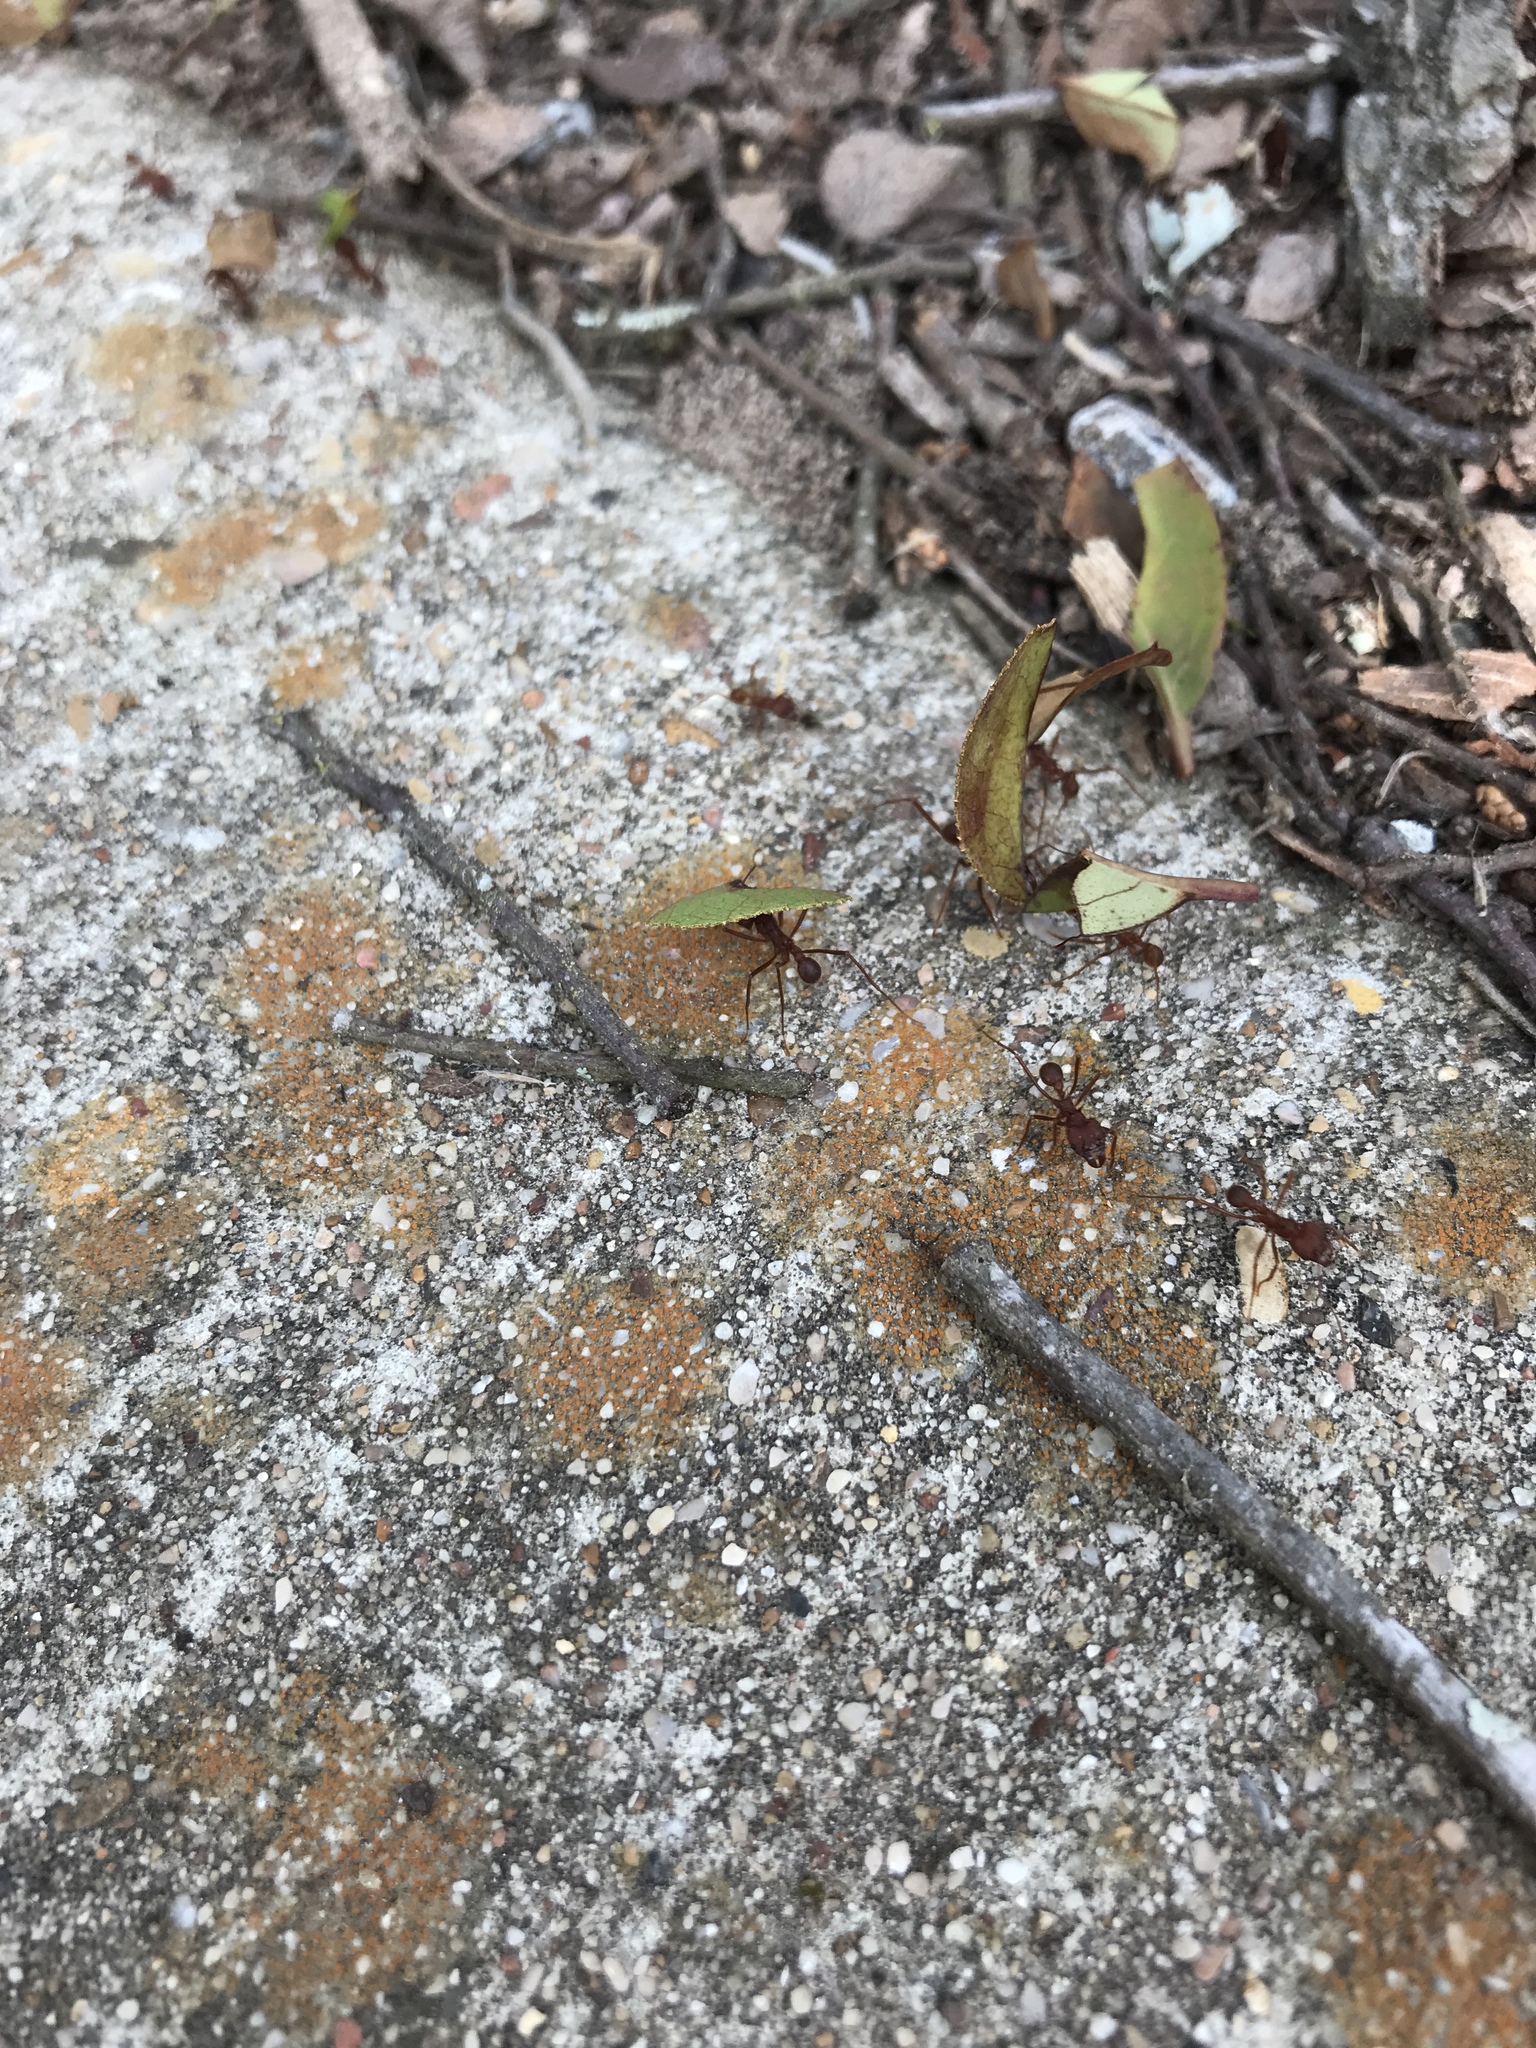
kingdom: Animalia
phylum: Arthropoda
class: Insecta
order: Hymenoptera
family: Formicidae
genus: Atta
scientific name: Atta texana
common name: Texas leafcutting ant
